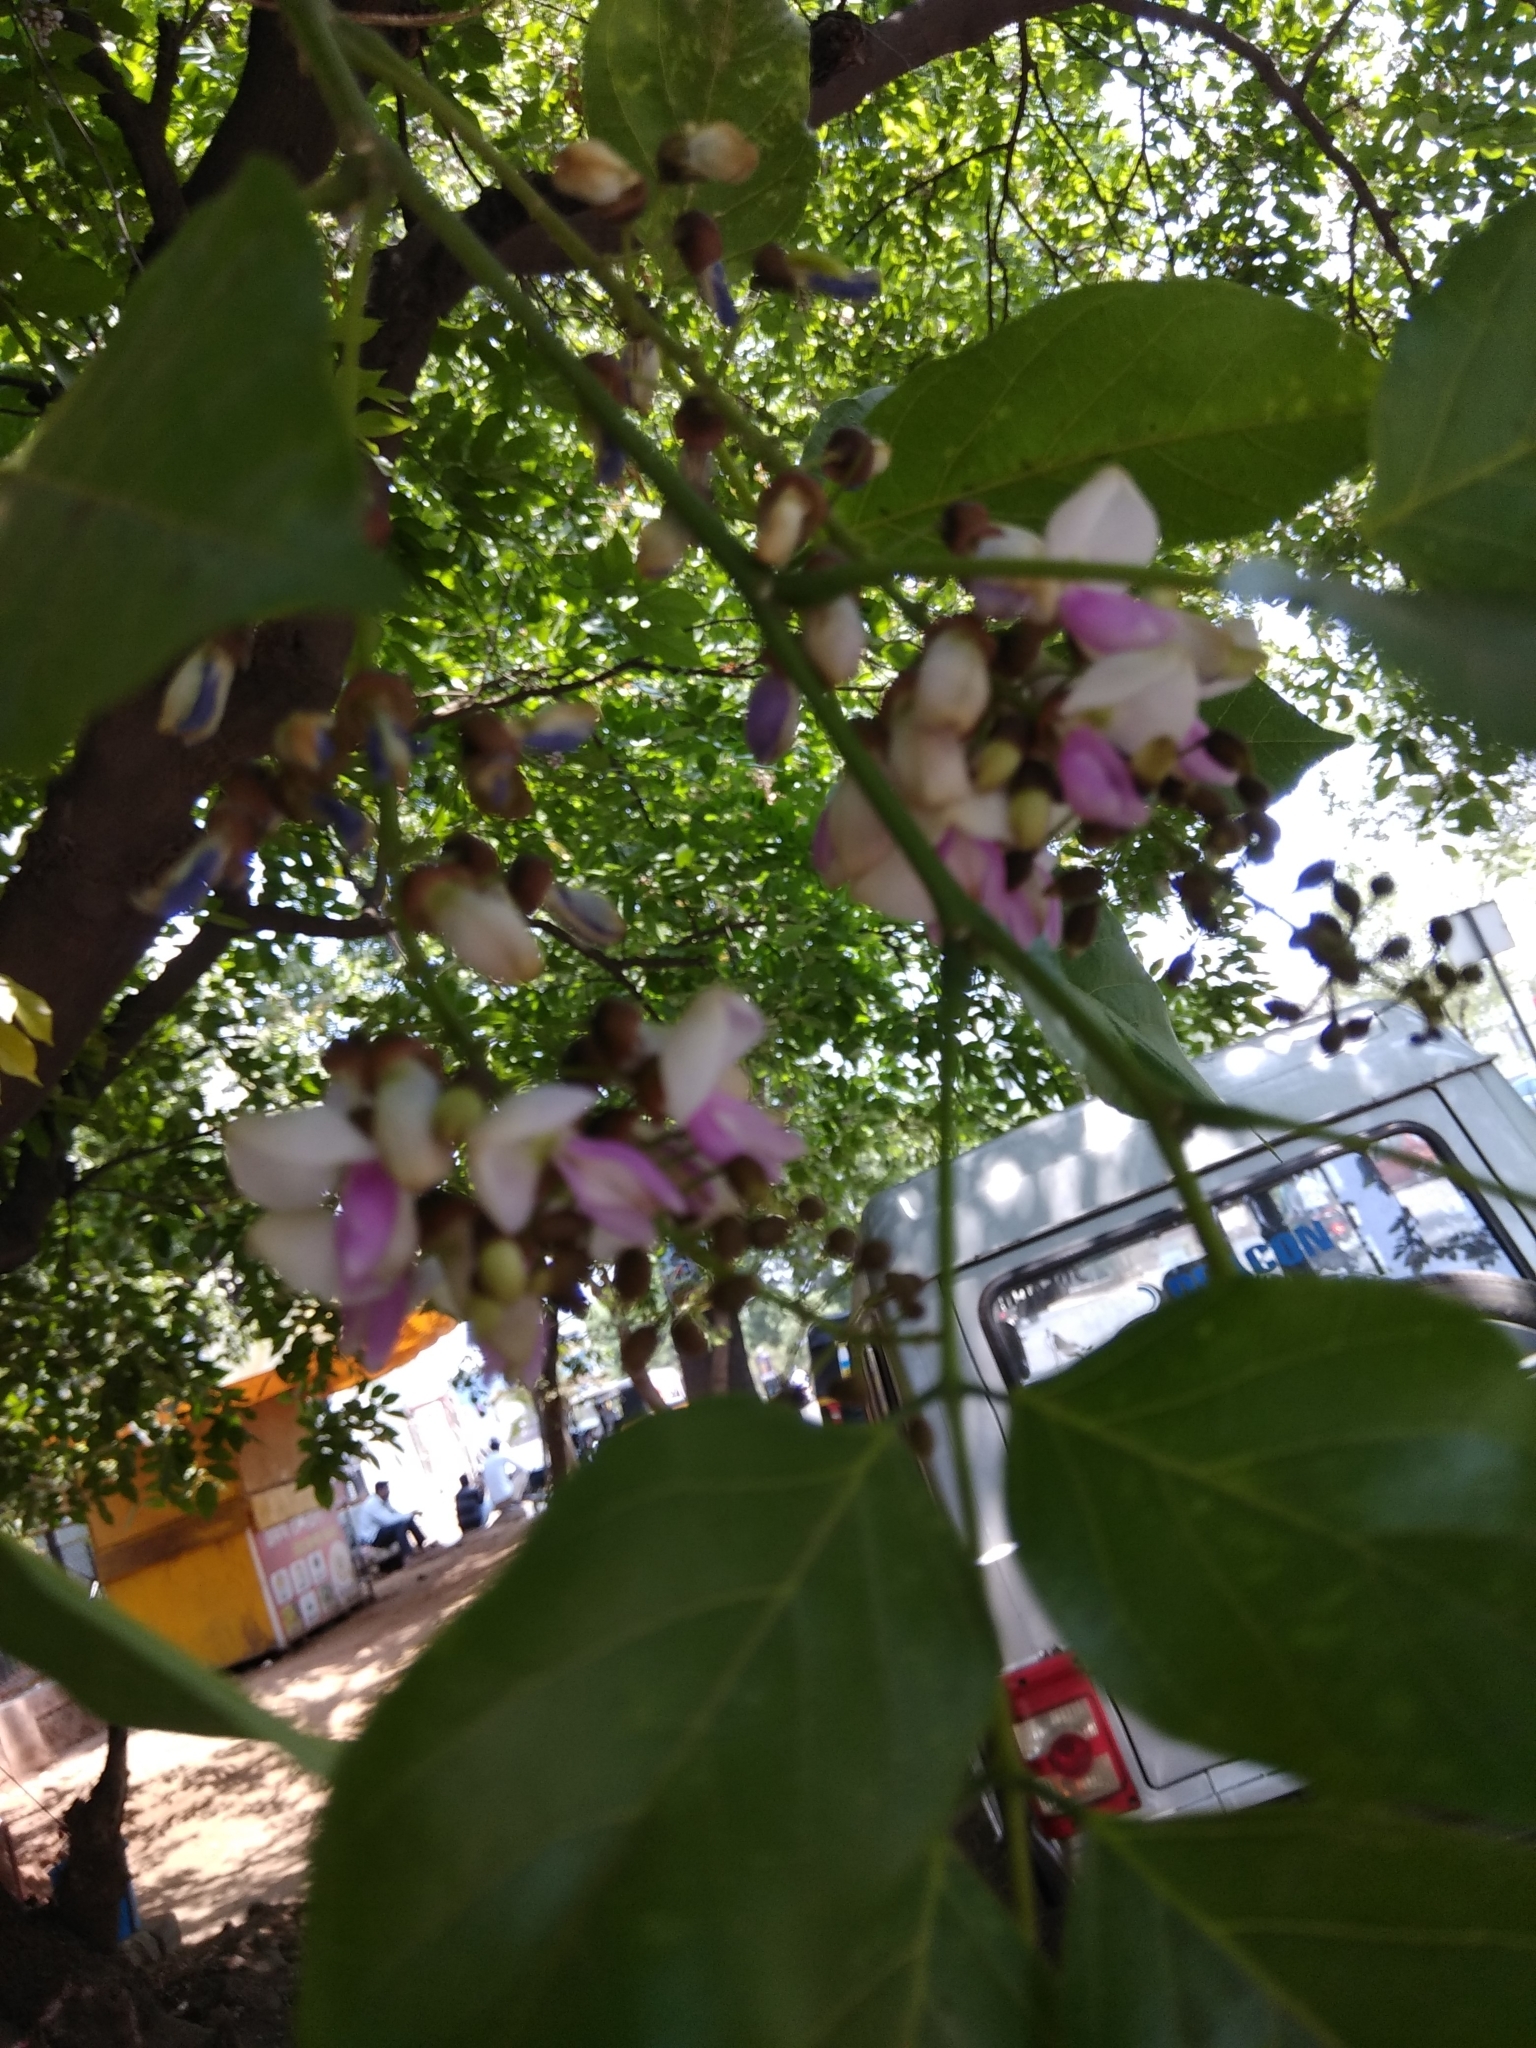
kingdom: Plantae
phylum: Tracheophyta
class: Magnoliopsida
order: Fabales
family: Fabaceae
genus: Pongamia
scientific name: Pongamia pinnata
